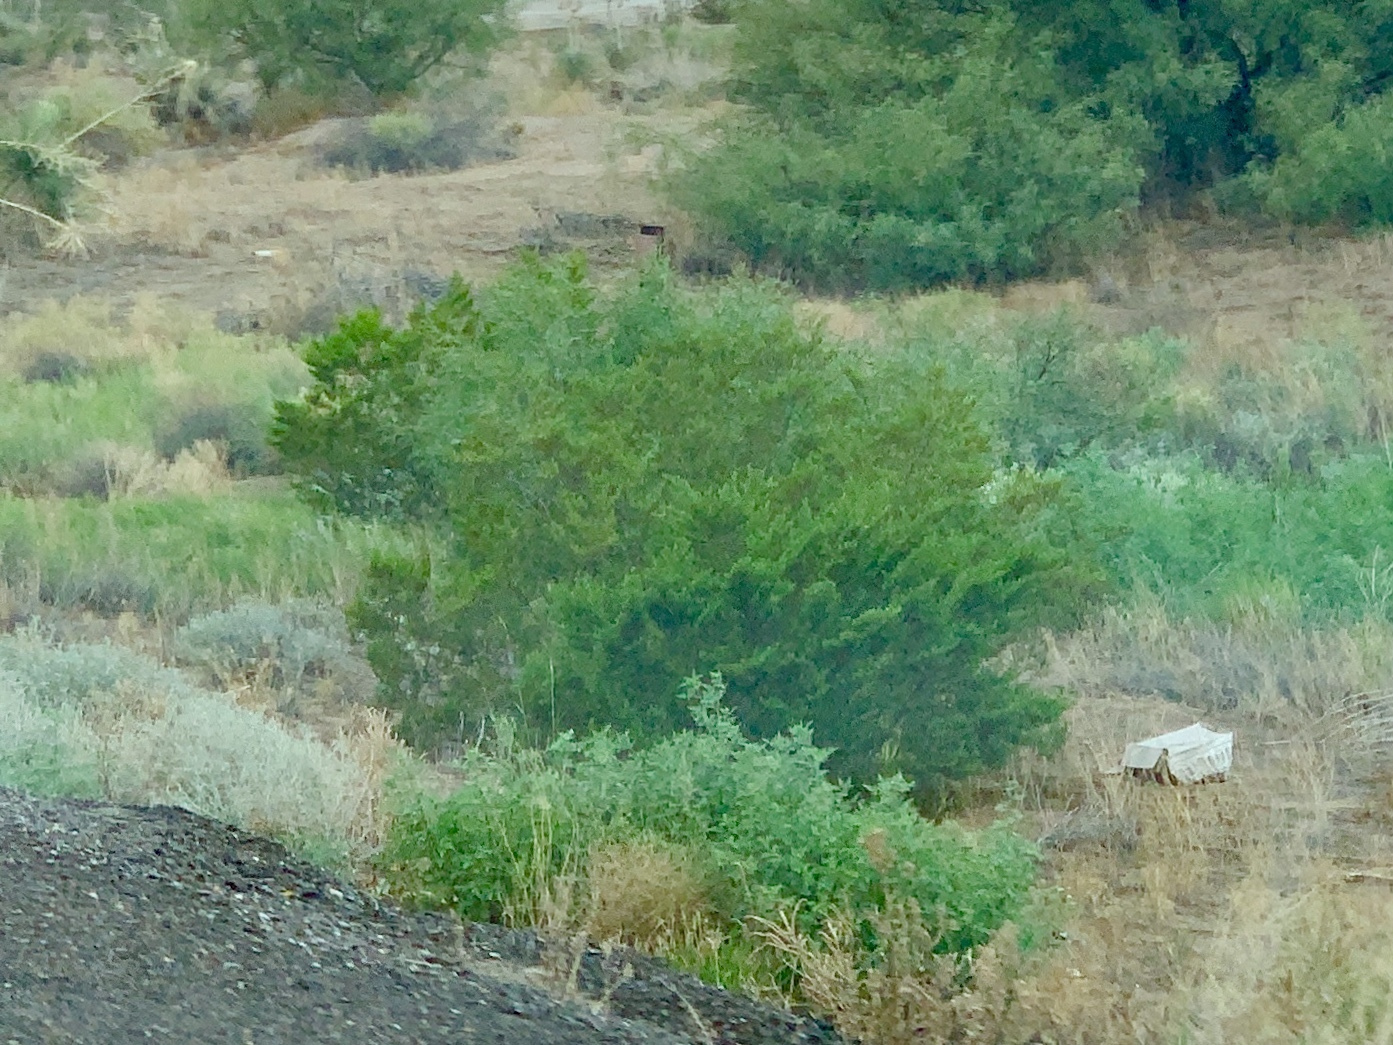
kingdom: Plantae
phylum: Tracheophyta
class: Magnoliopsida
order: Zygophyllales
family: Zygophyllaceae
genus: Larrea
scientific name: Larrea tridentata
